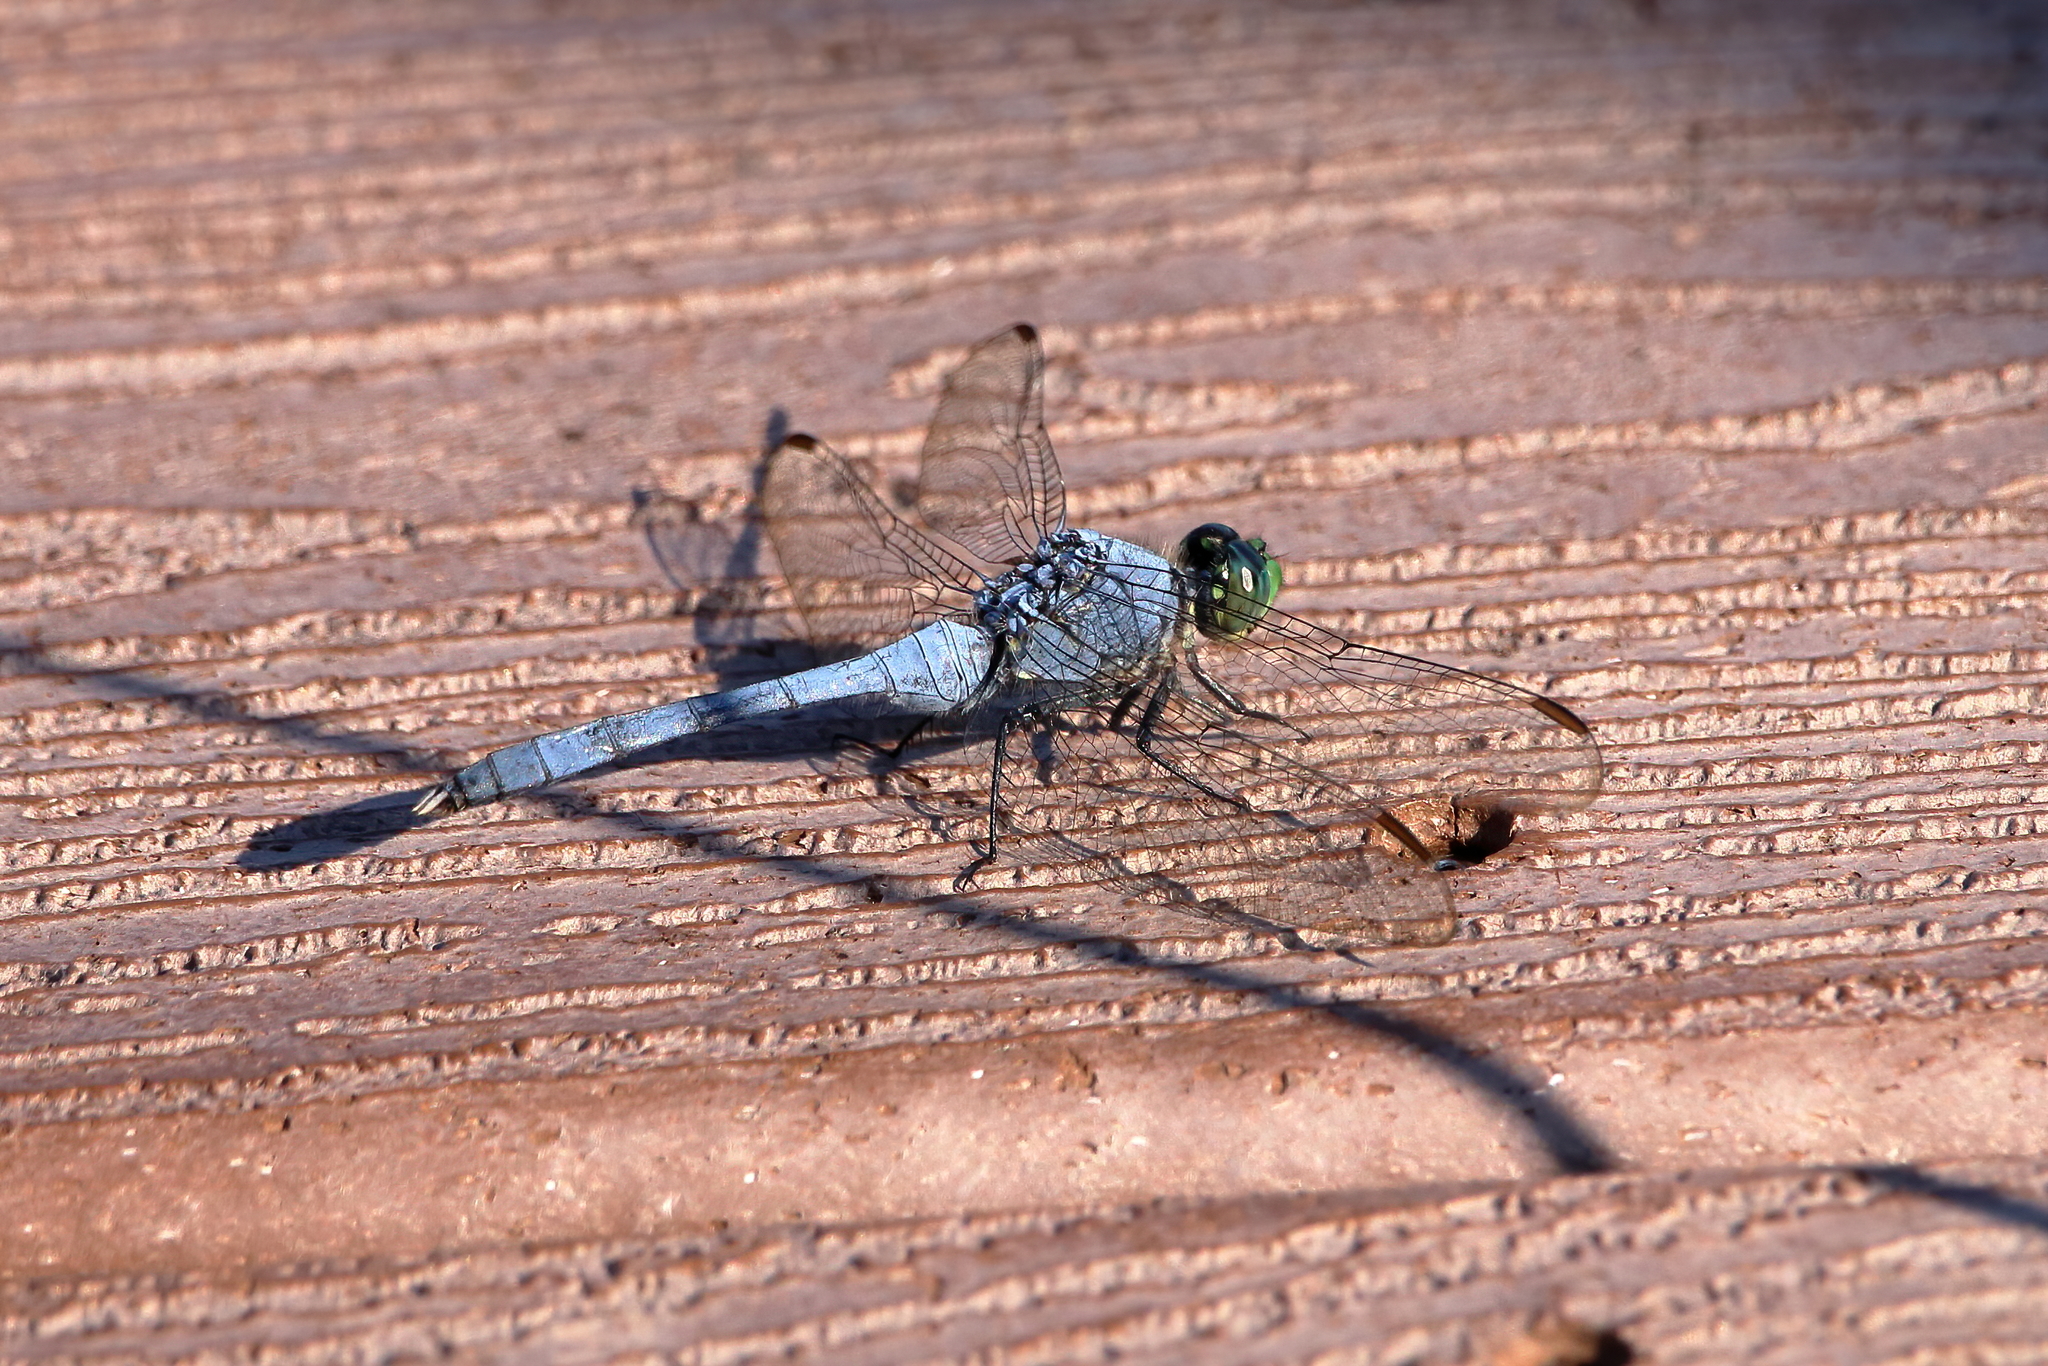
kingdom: Animalia
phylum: Arthropoda
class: Insecta
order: Odonata
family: Libellulidae
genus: Erythemis
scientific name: Erythemis simplicicollis
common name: Eastern pondhawk
